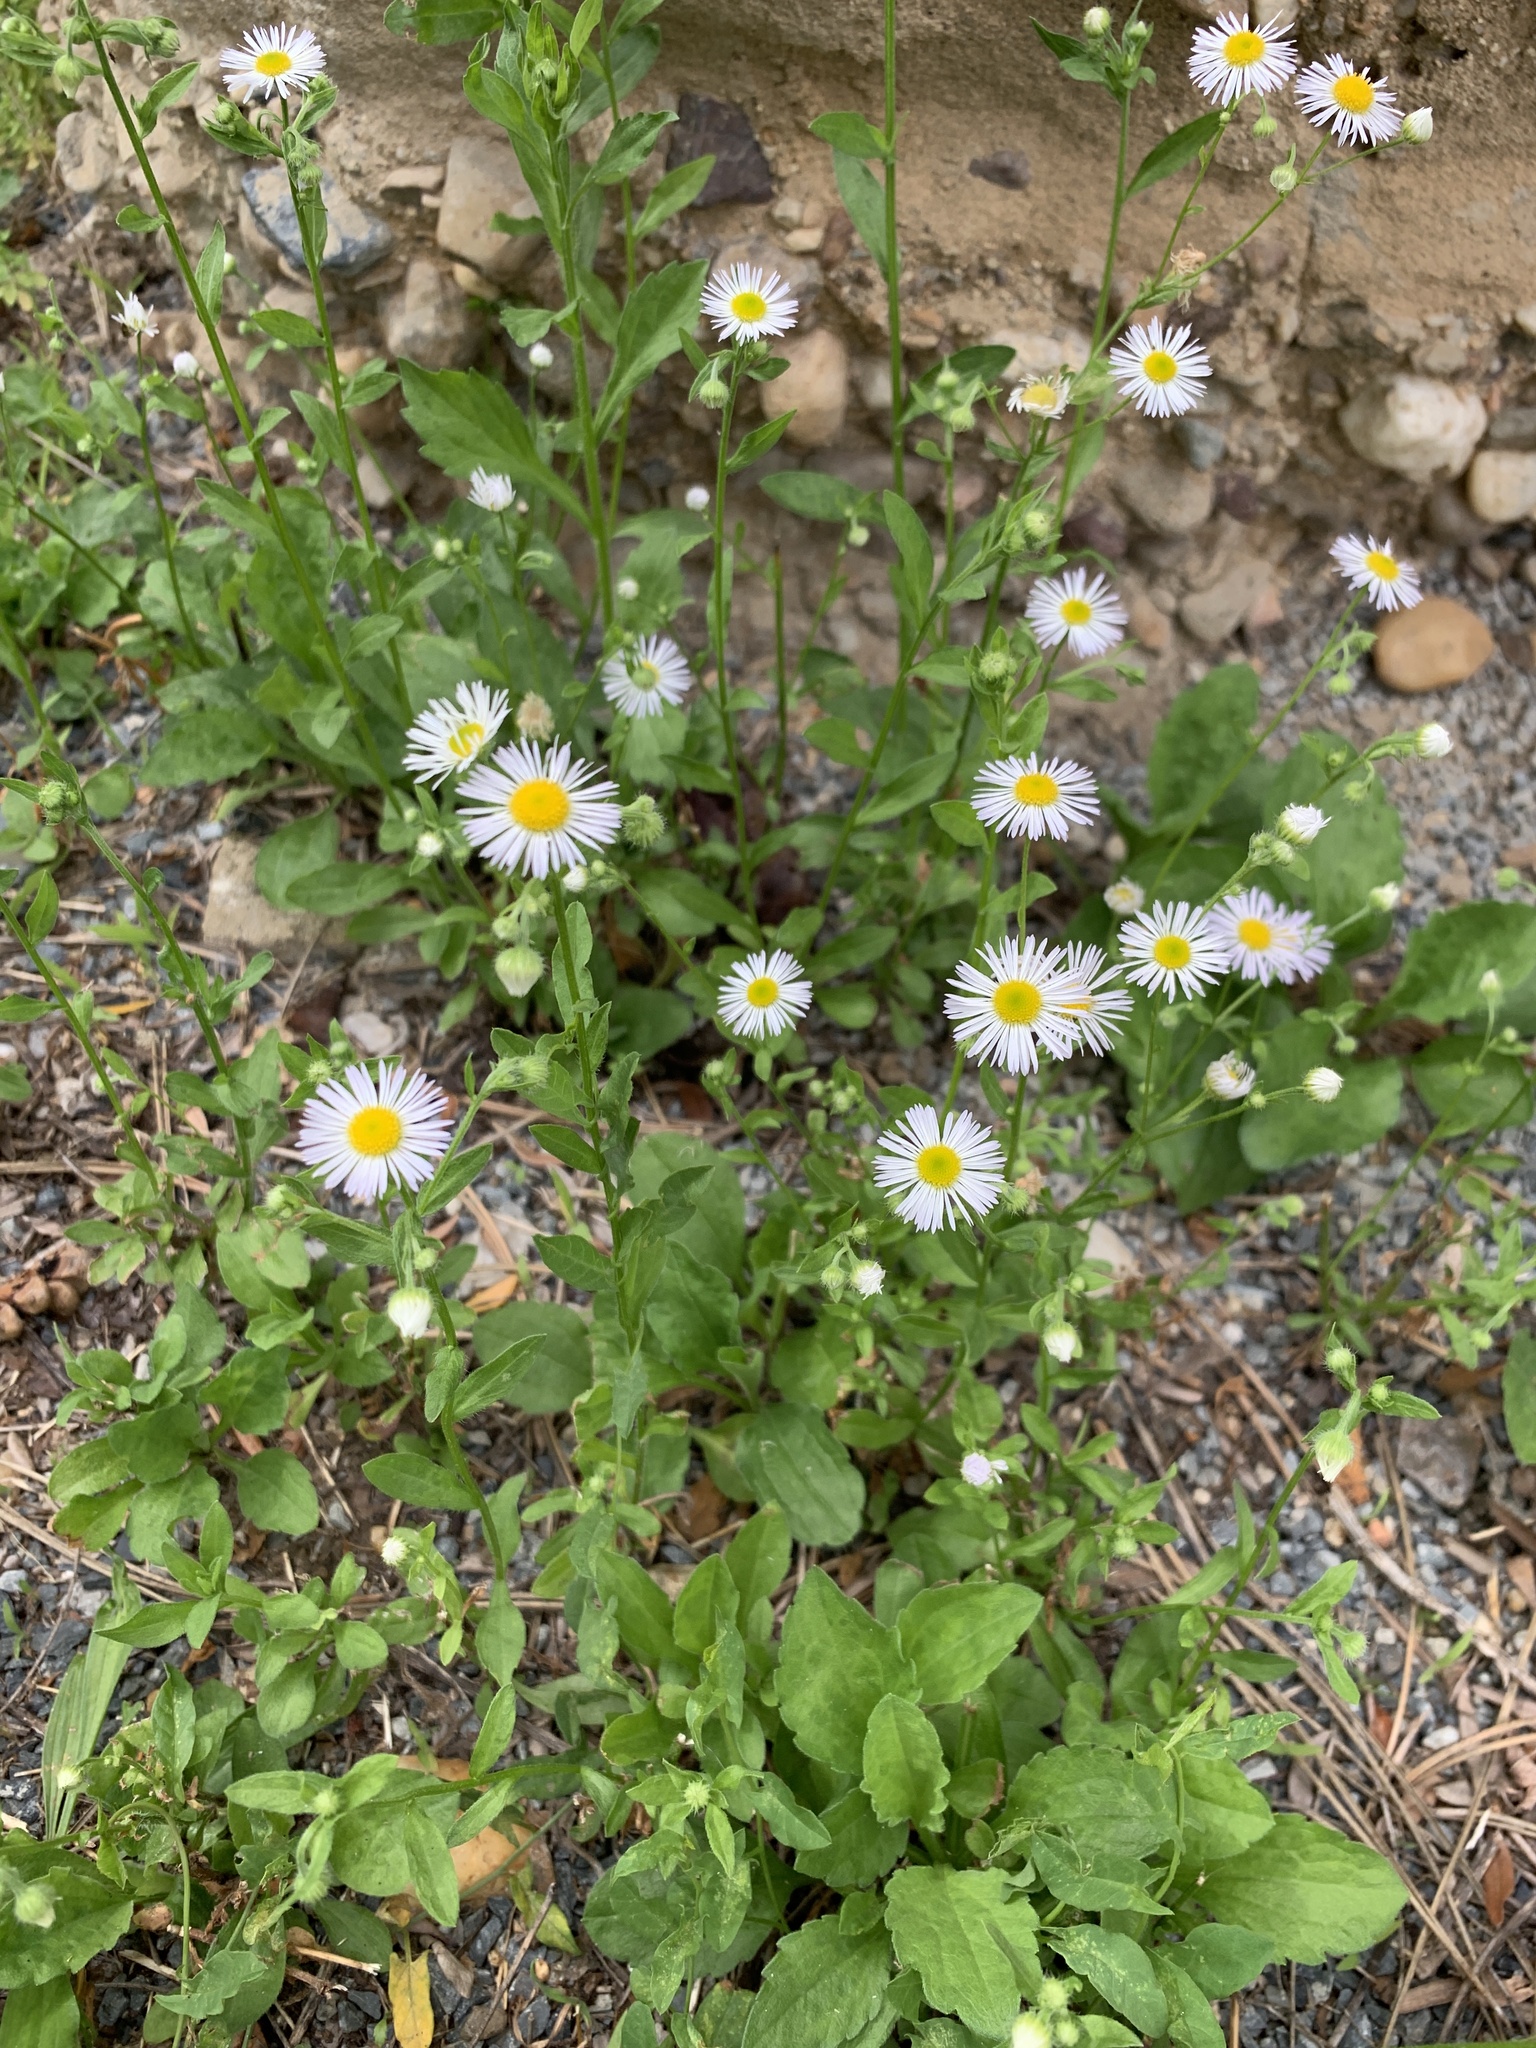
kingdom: Plantae
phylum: Tracheophyta
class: Magnoliopsida
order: Asterales
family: Asteraceae
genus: Erigeron
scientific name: Erigeron annuus
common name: Tall fleabane
